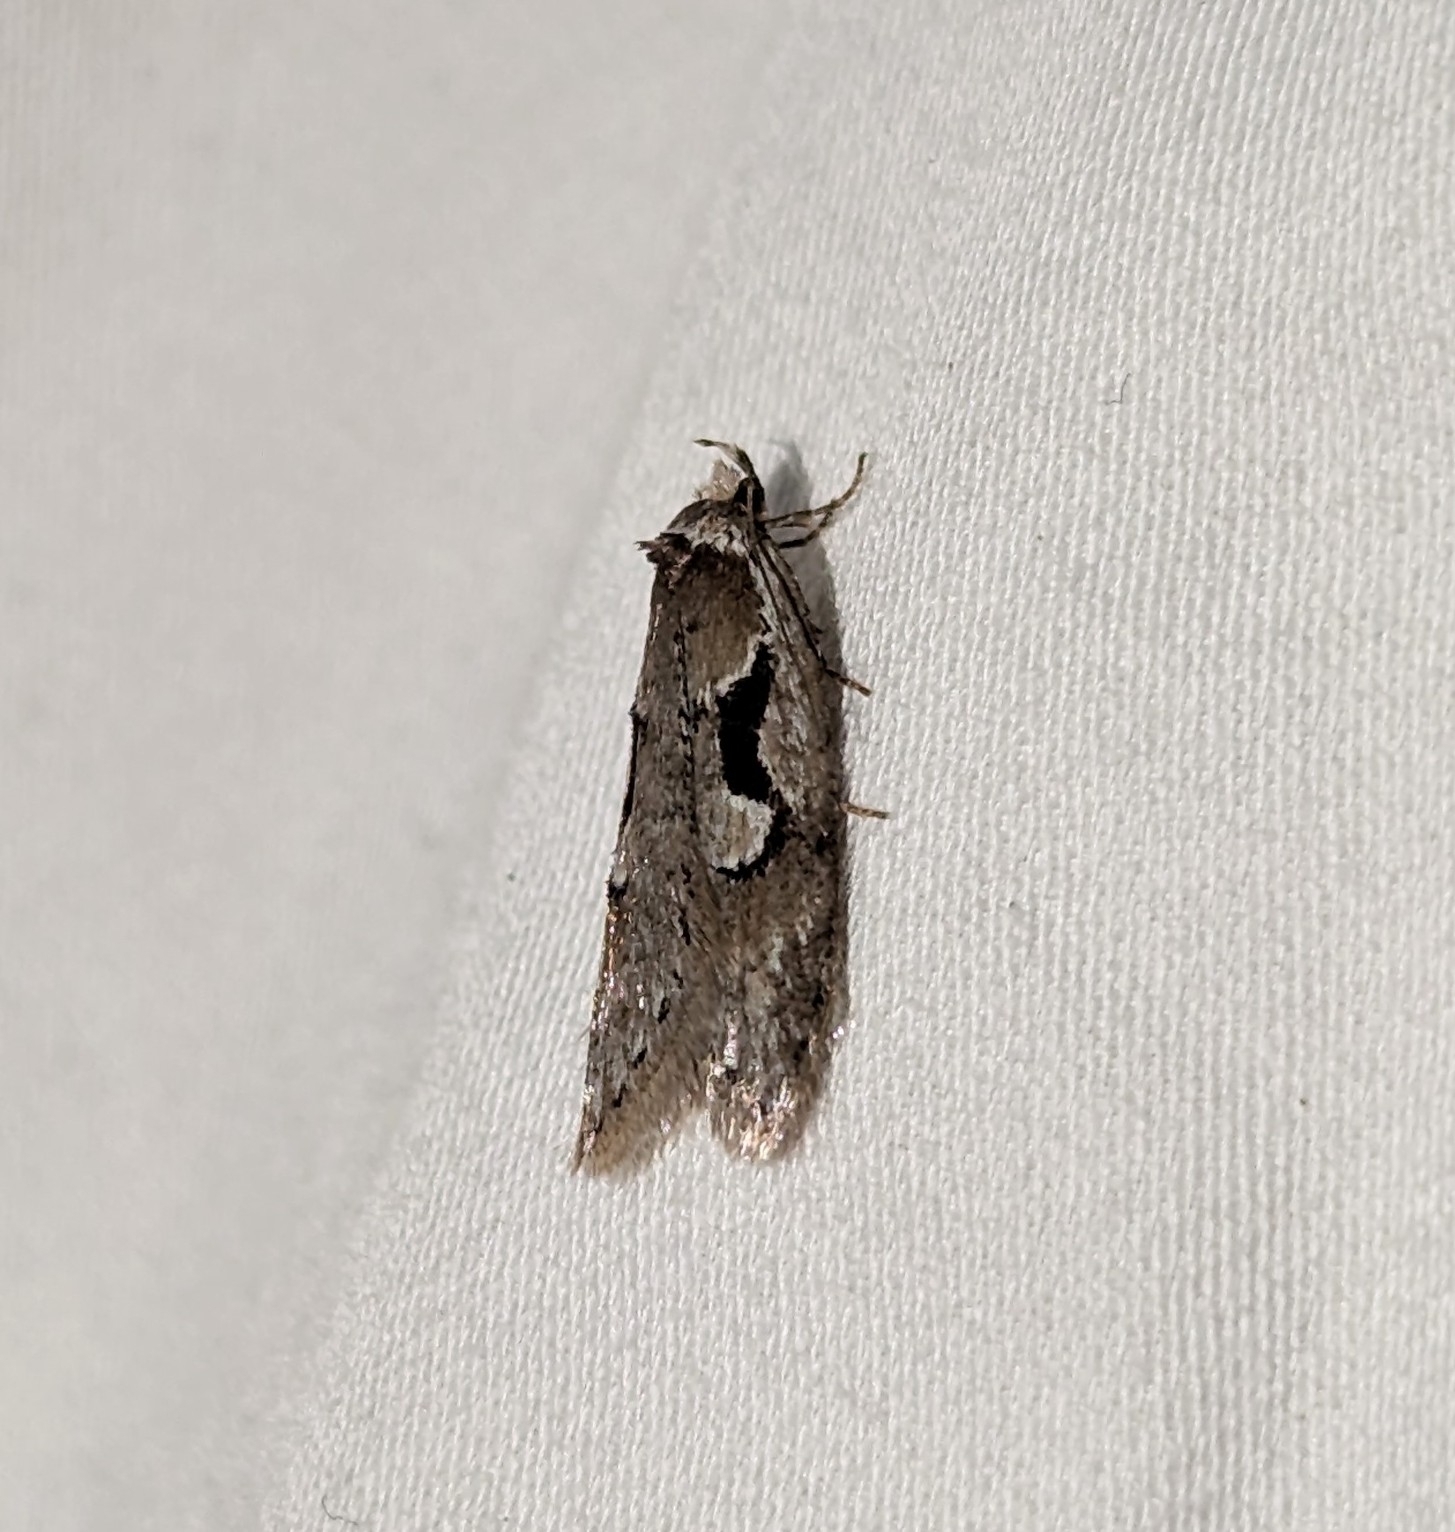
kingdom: Animalia
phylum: Arthropoda
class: Insecta
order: Lepidoptera
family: Depressariidae
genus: Semioscopis
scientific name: Semioscopis merriccella
